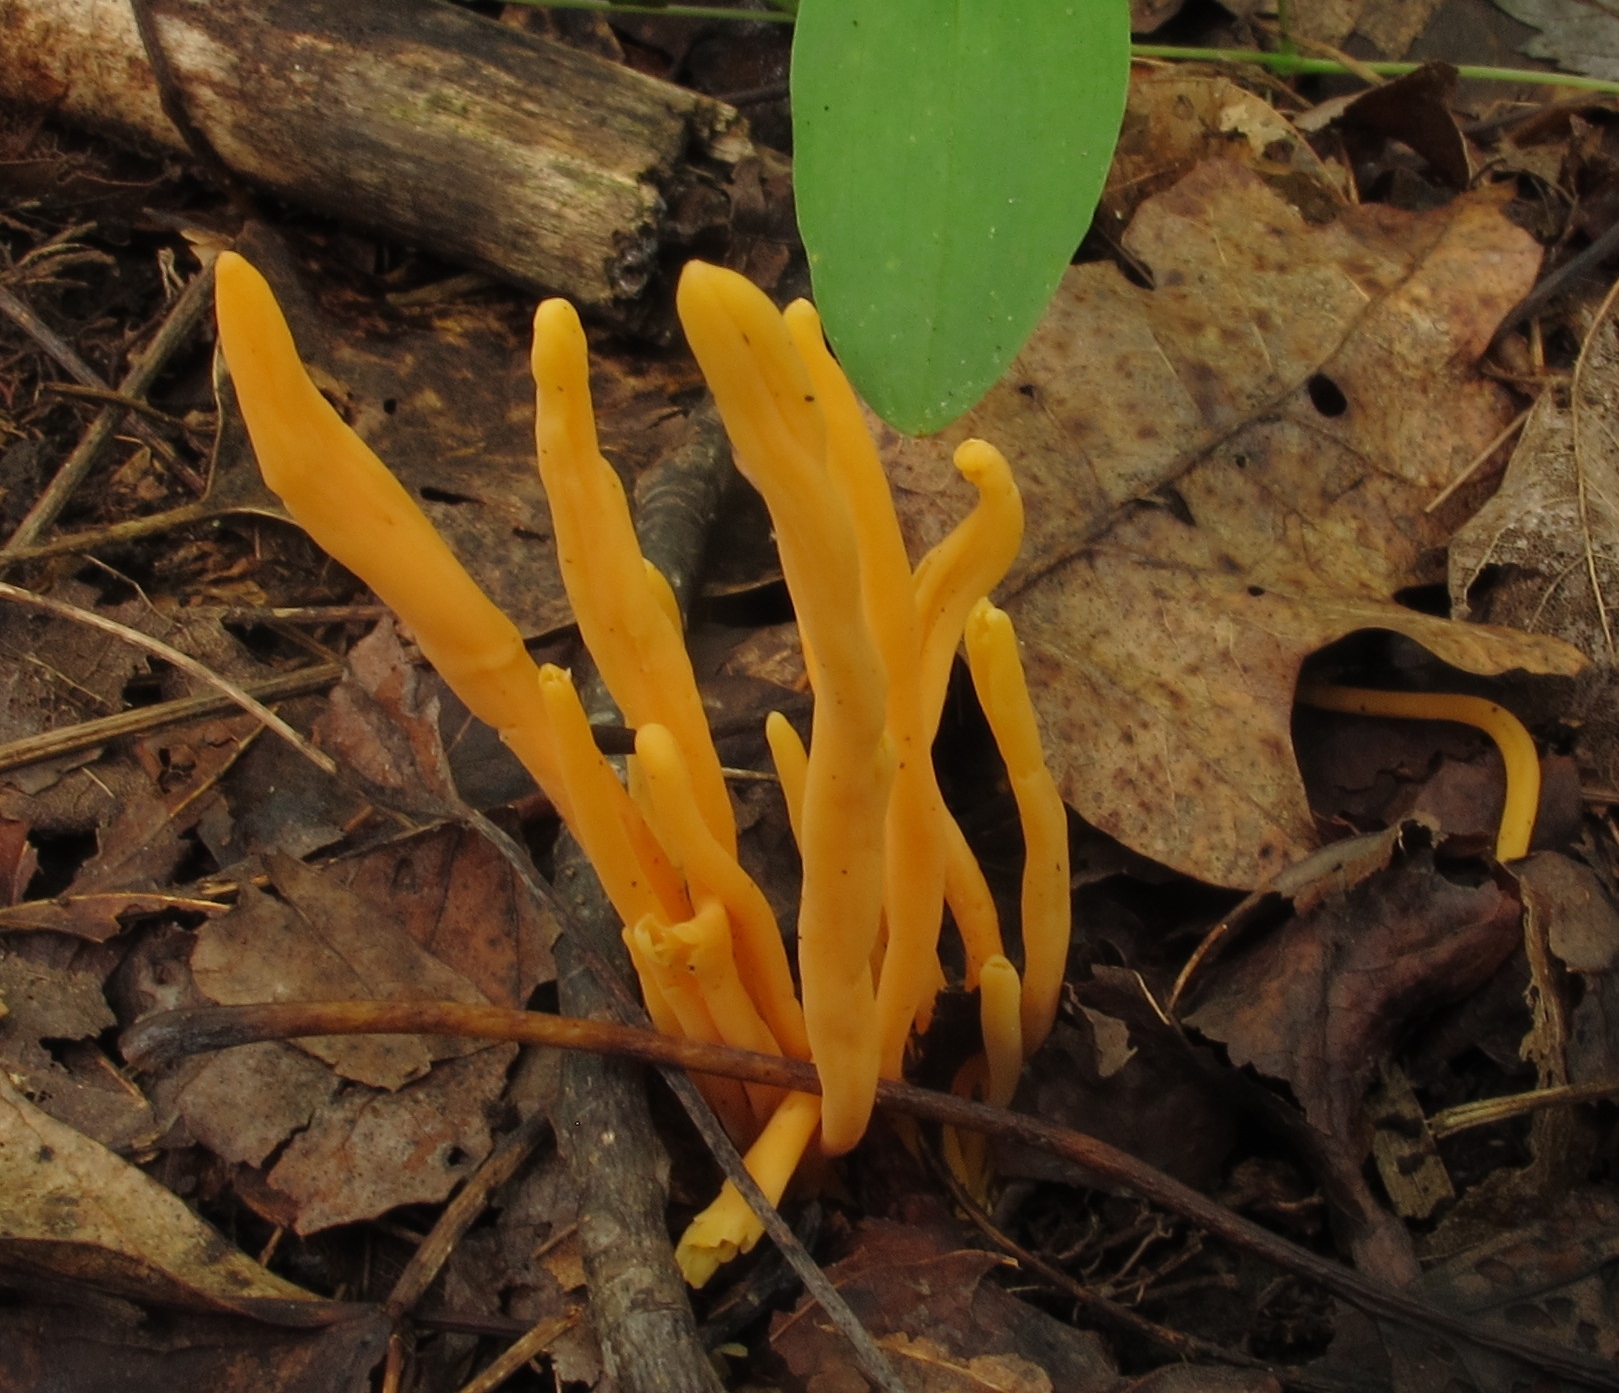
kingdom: Fungi
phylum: Basidiomycota
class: Agaricomycetes
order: Agaricales
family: Clavariaceae
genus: Clavulinopsis
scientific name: Clavulinopsis aurantiocinnabarina
